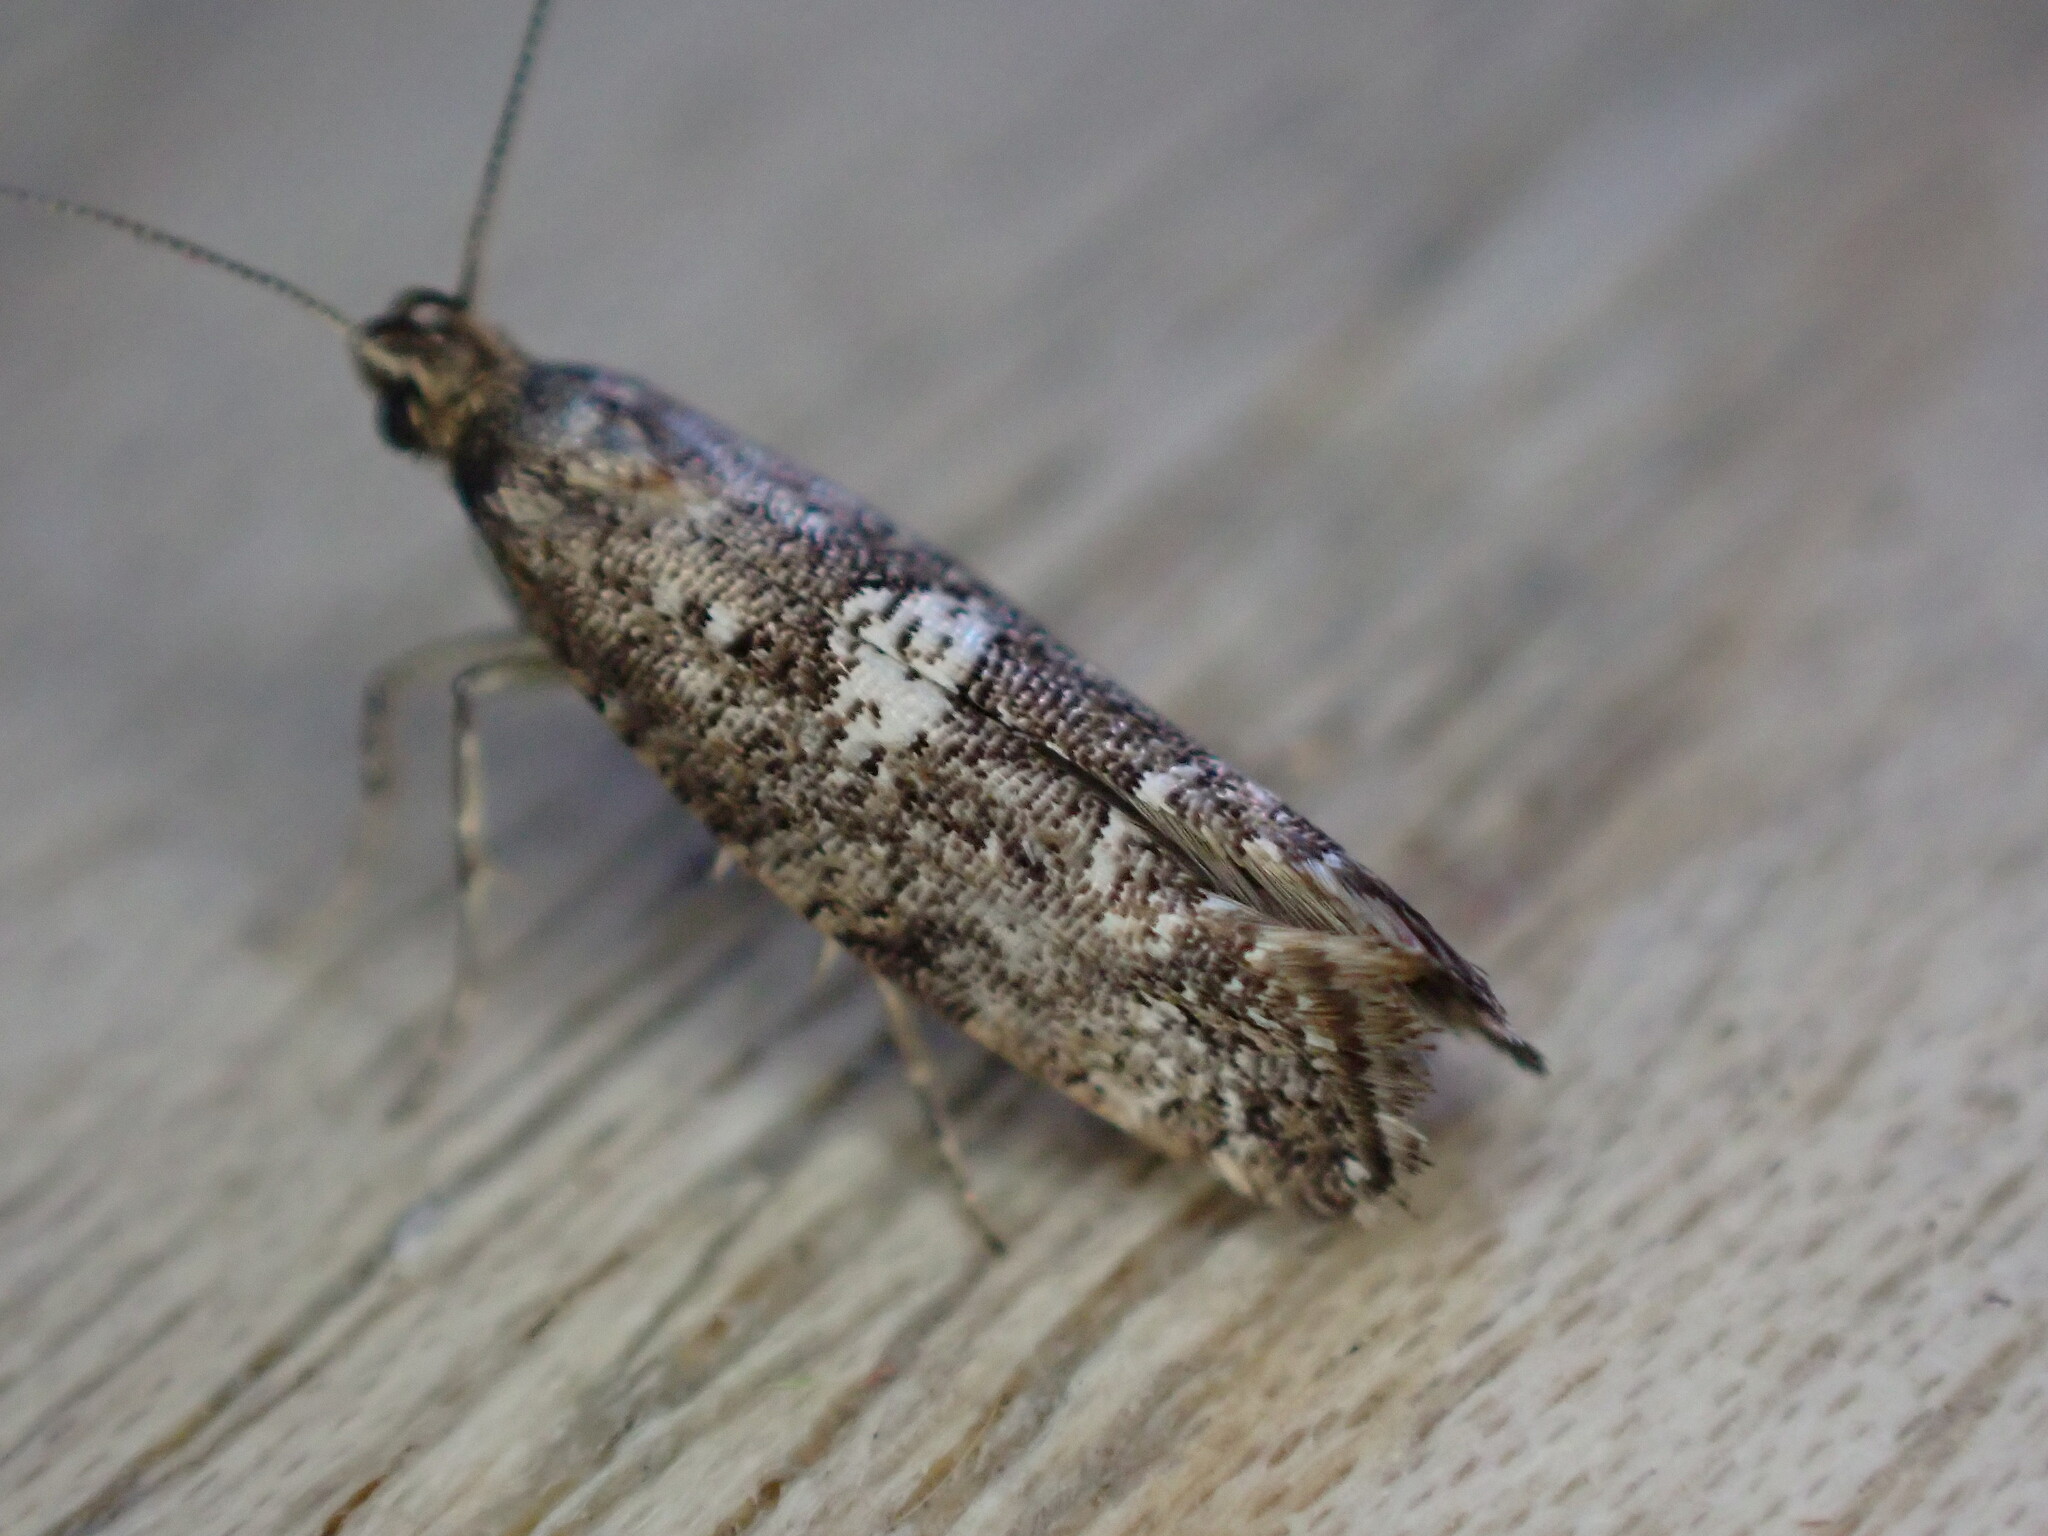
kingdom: Animalia
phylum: Arthropoda
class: Insecta
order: Lepidoptera
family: Glyphipterigidae
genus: Acrolepia
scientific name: Acrolepia assectella
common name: Onion leaf miner
